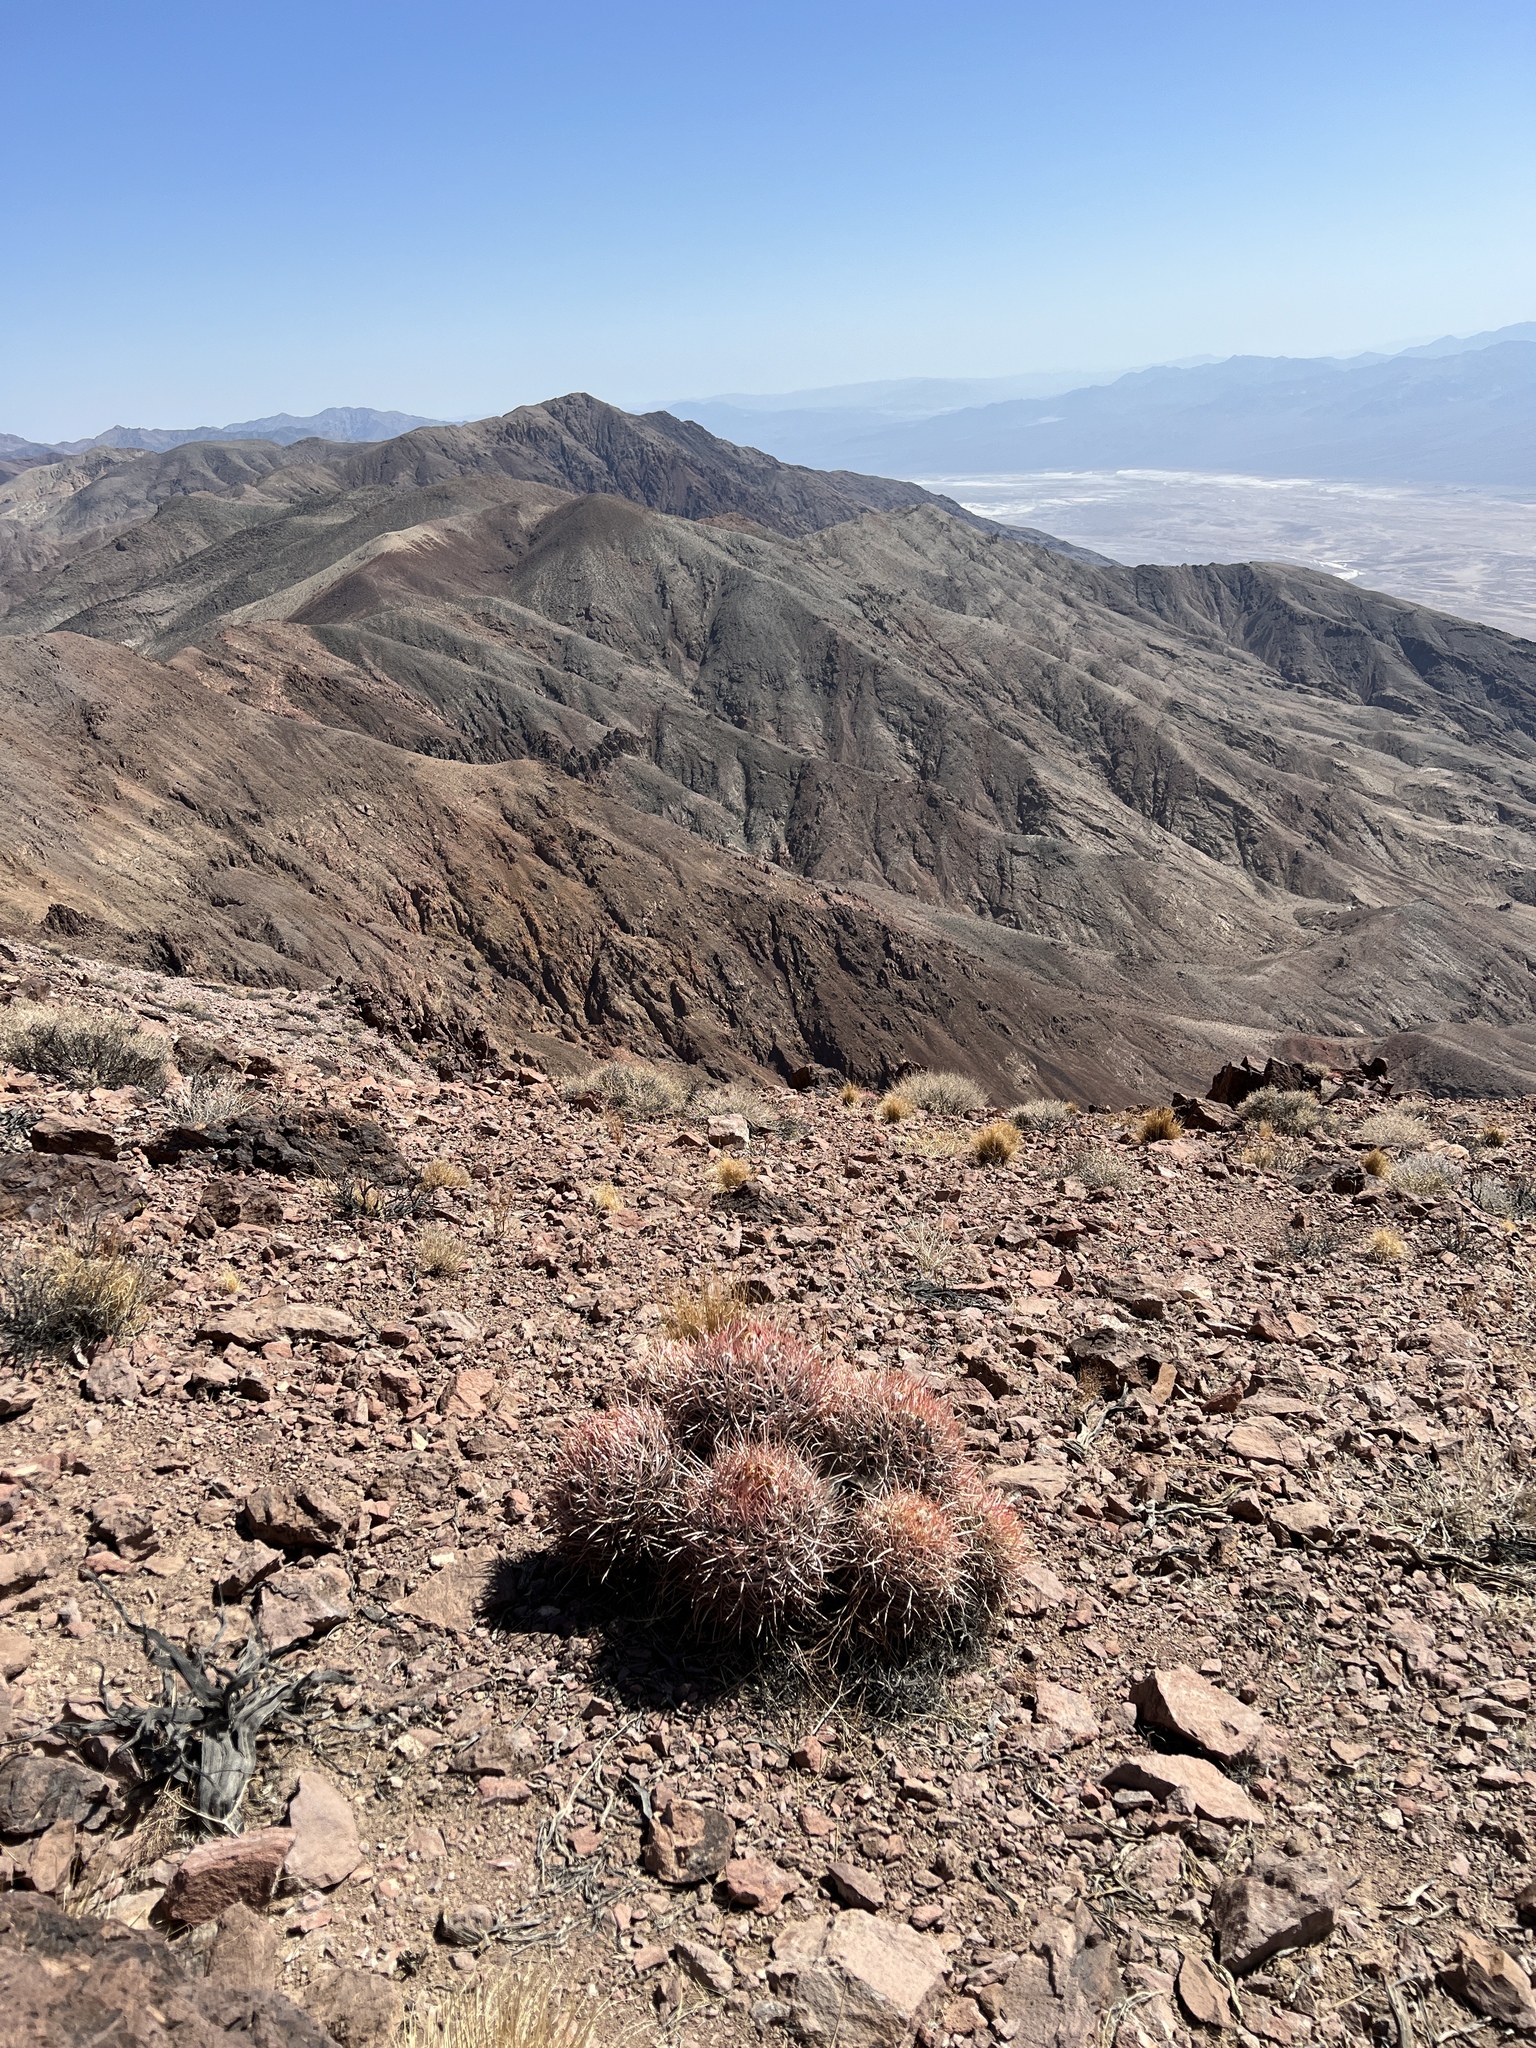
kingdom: Plantae
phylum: Tracheophyta
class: Magnoliopsida
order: Caryophyllales
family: Cactaceae
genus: Echinocactus
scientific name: Echinocactus polycephalus
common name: Cottontop cactus
